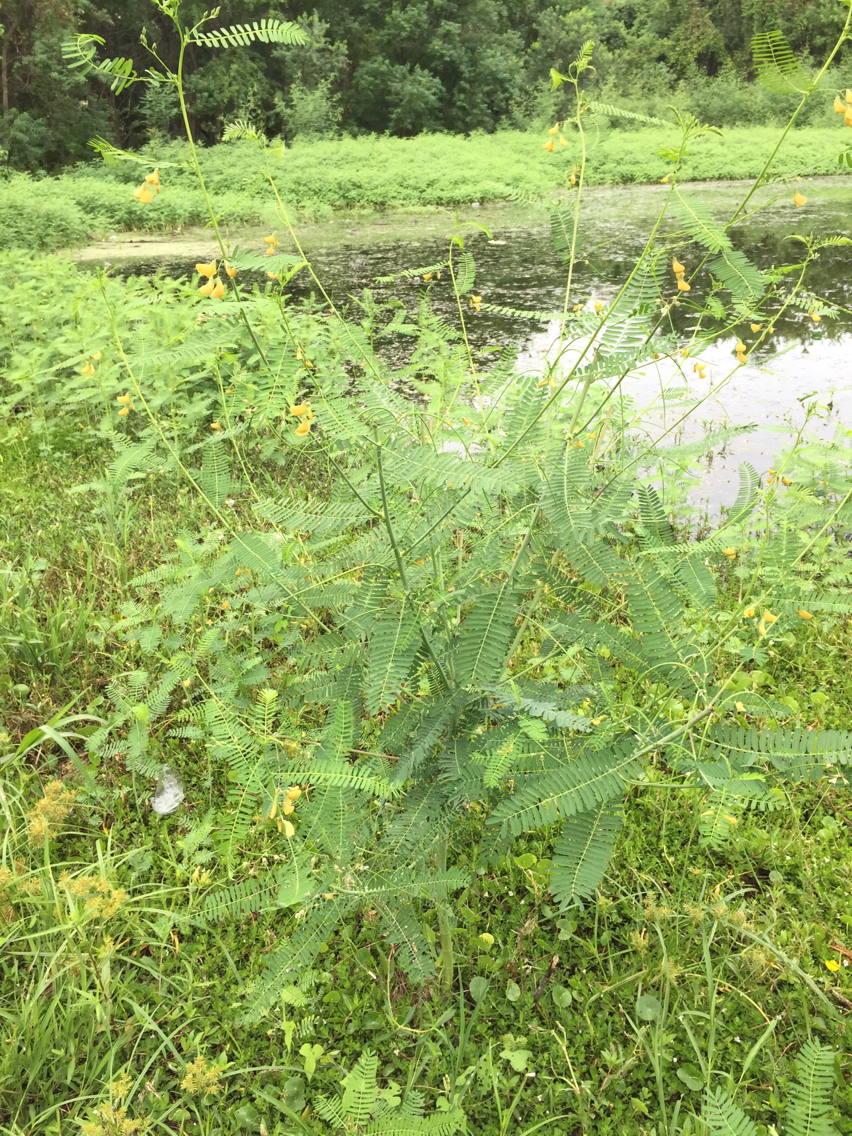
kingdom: Plantae
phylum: Tracheophyta
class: Magnoliopsida
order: Fabales
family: Fabaceae
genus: Sesbania
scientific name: Sesbania herbacea
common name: Bigpod sesbania
